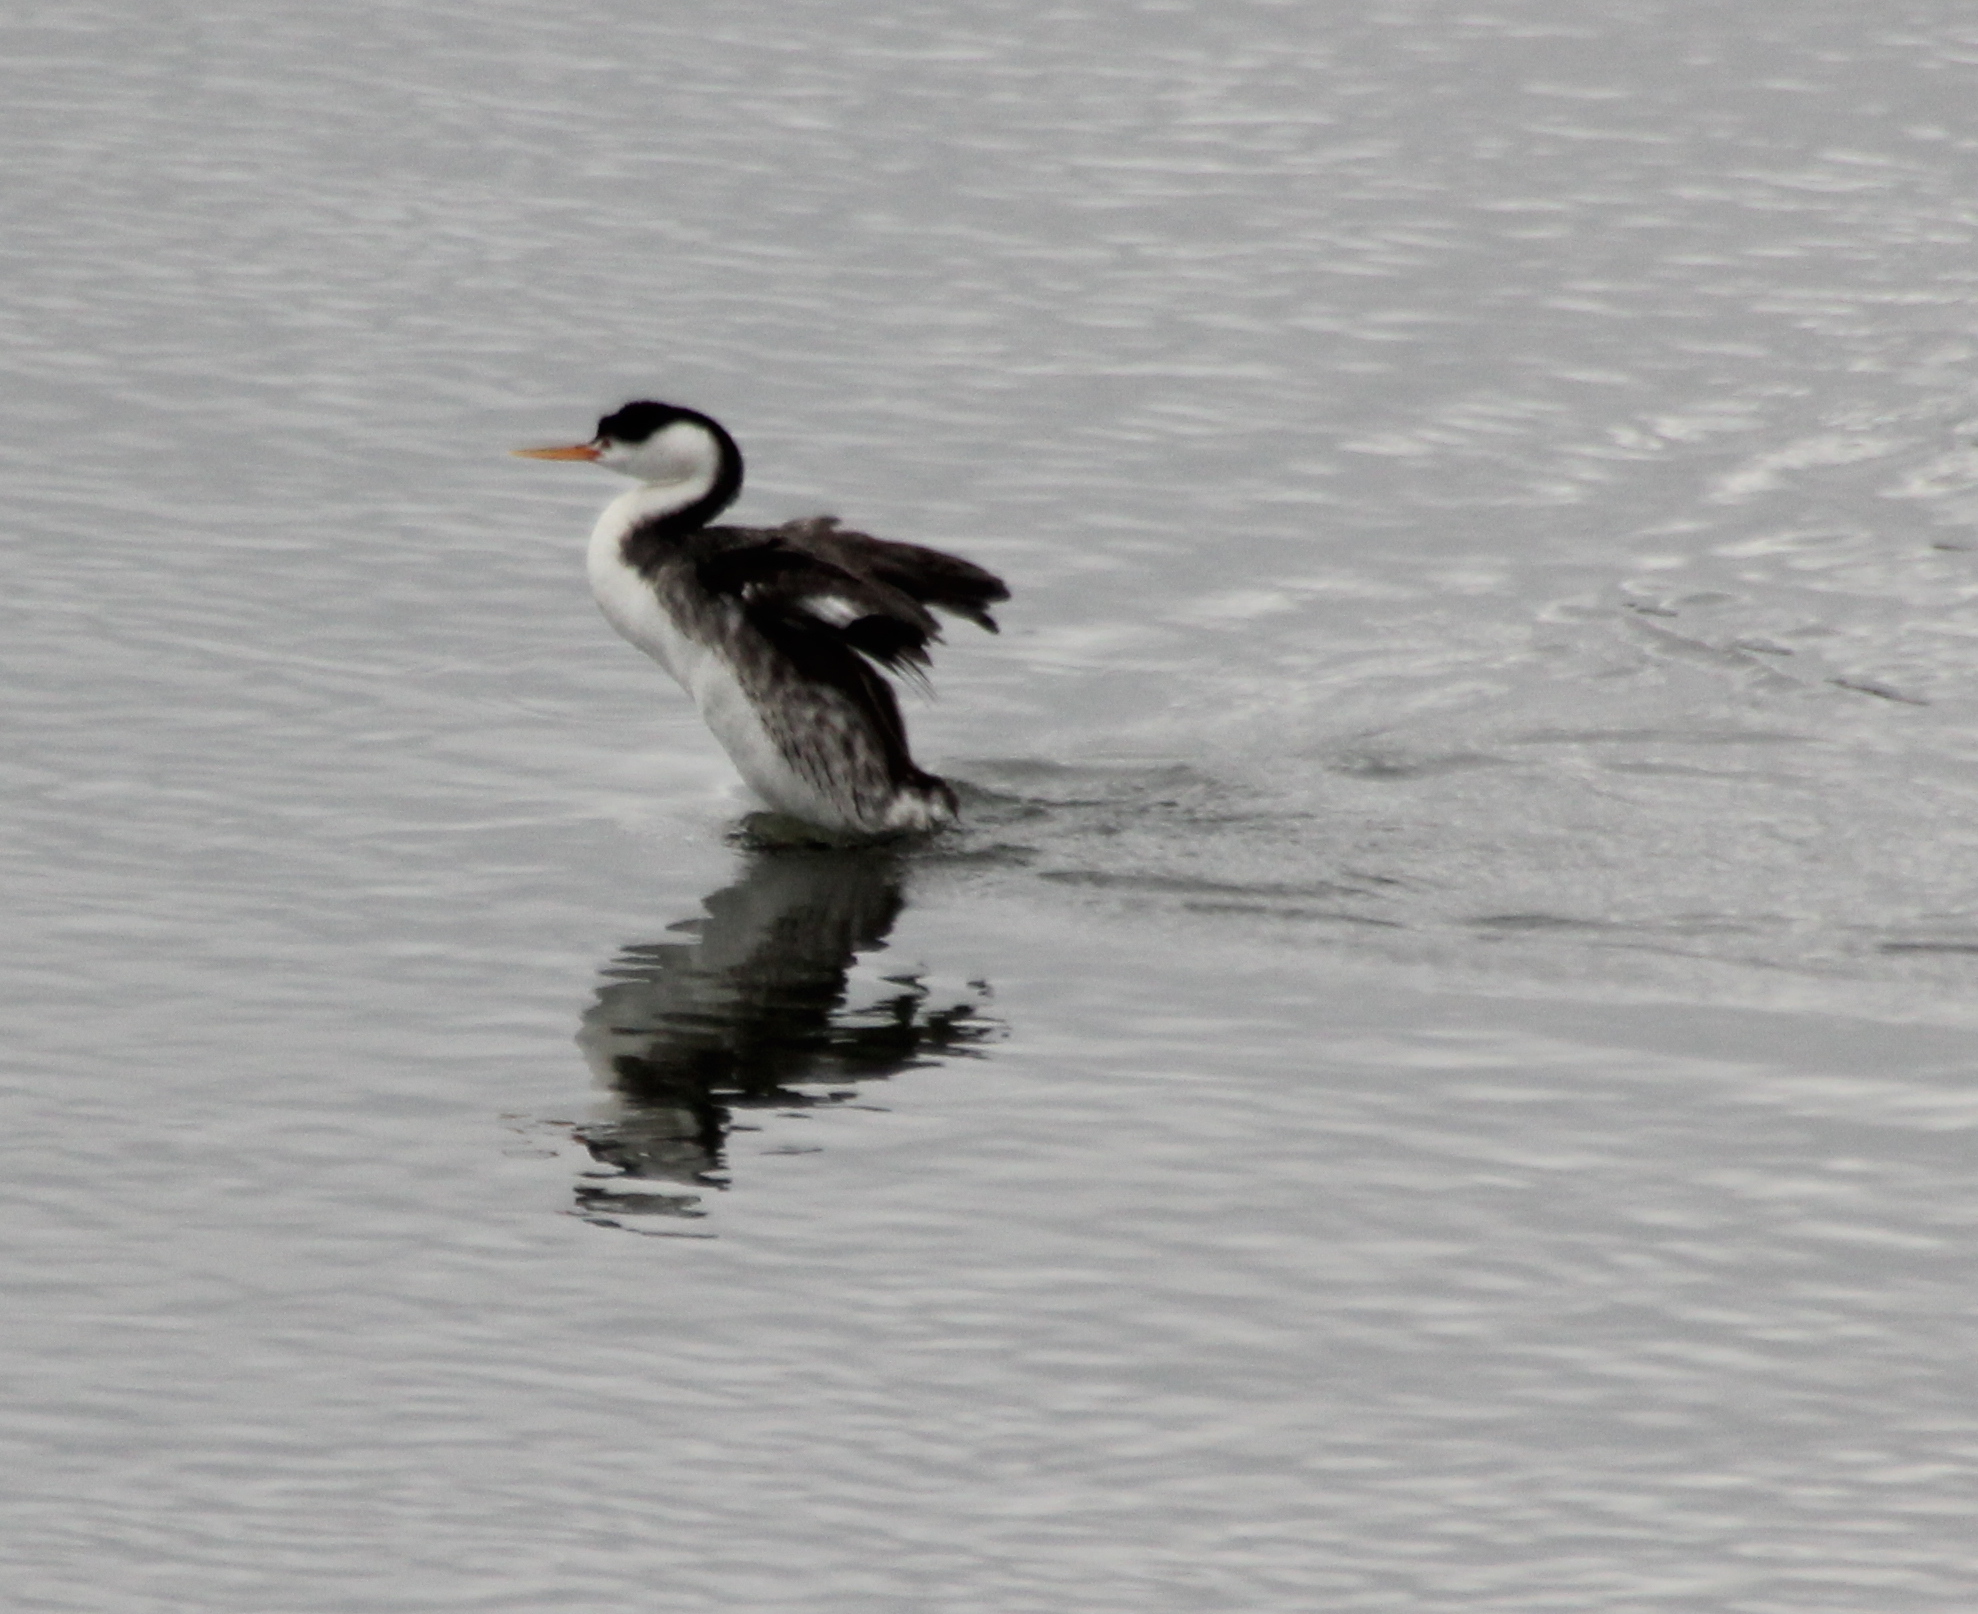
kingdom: Animalia
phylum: Chordata
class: Aves
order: Podicipediformes
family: Podicipedidae
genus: Aechmophorus
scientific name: Aechmophorus clarkii
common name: Clark's grebe
